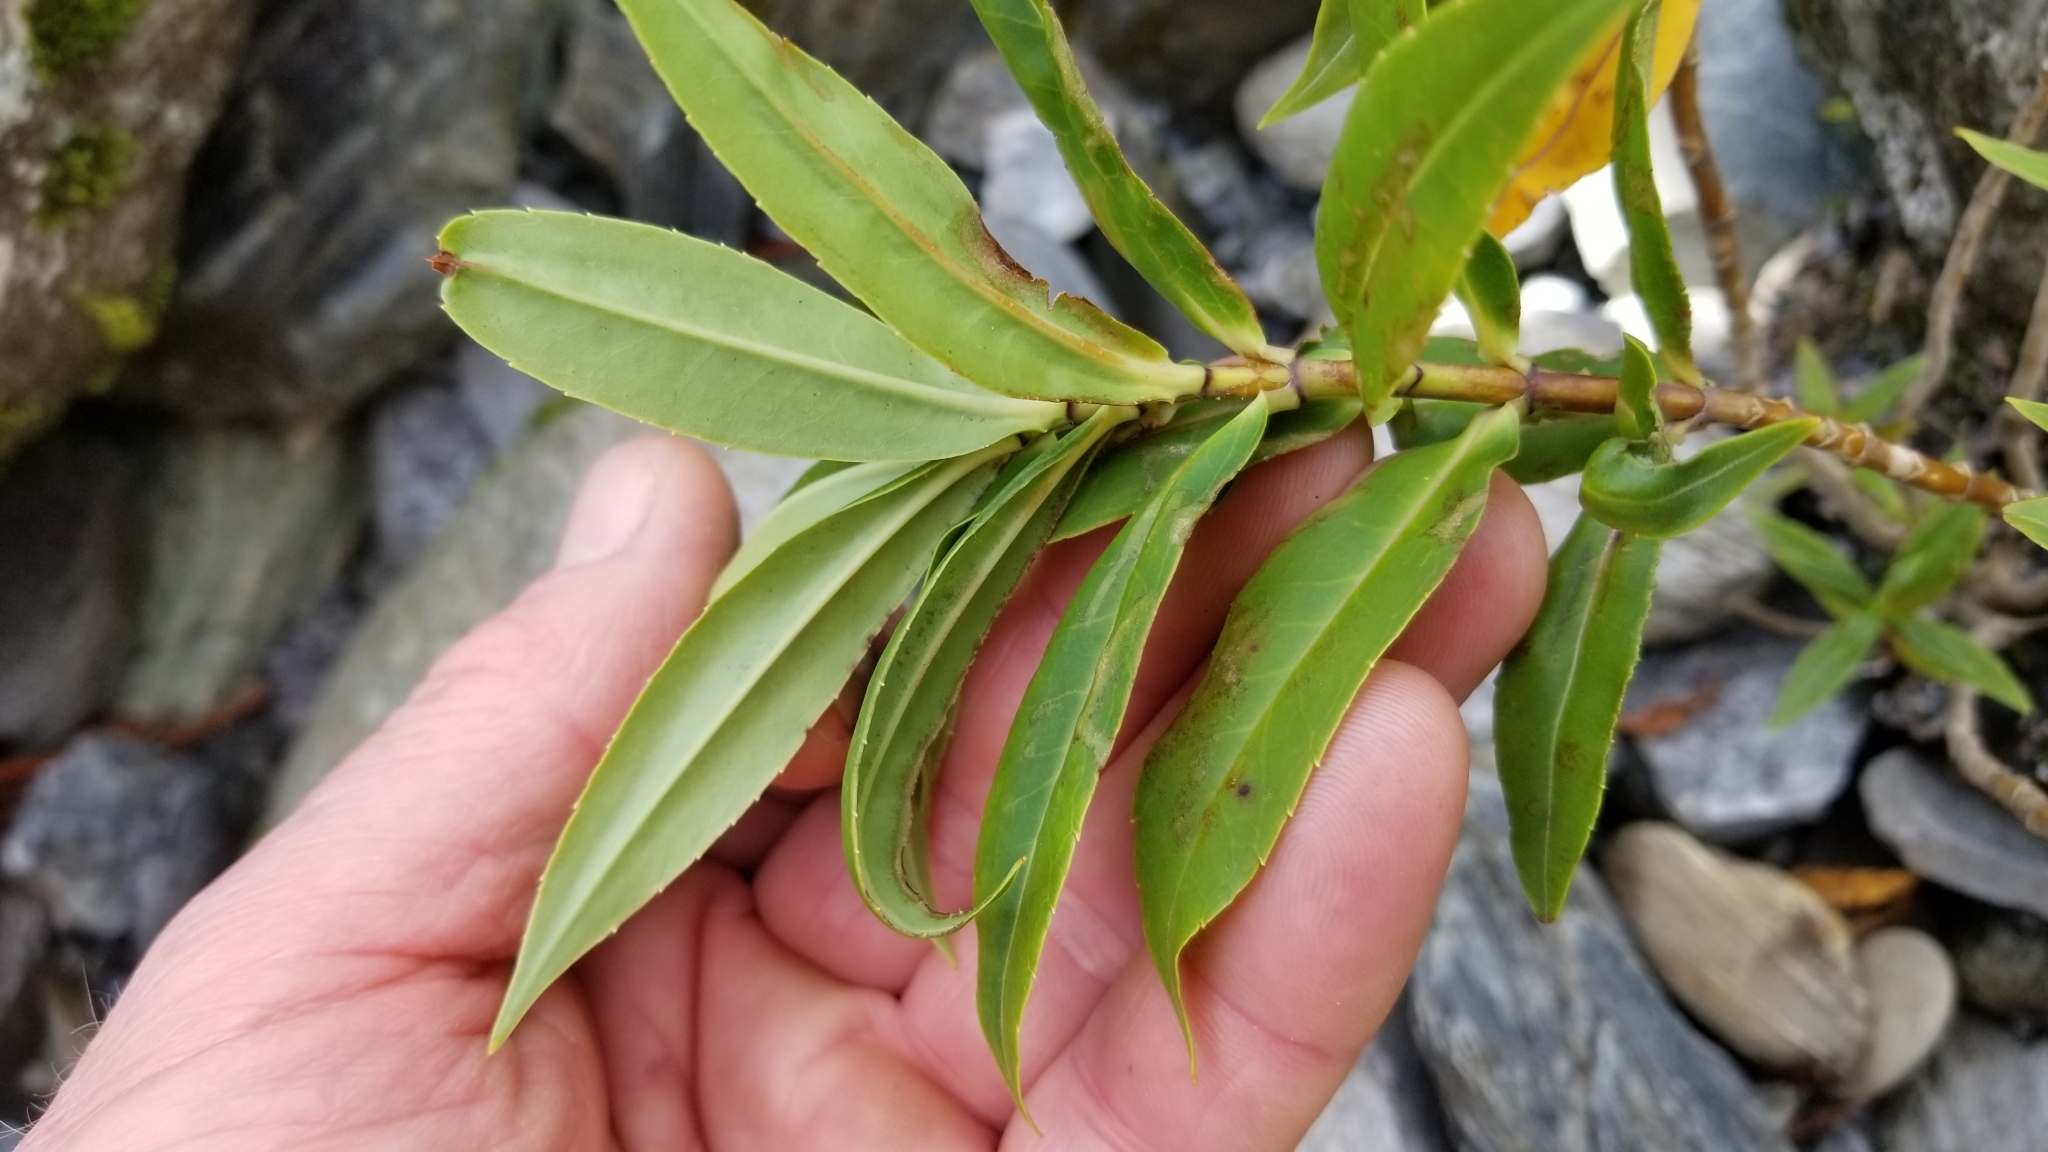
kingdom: Plantae
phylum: Tracheophyta
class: Magnoliopsida
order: Lamiales
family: Plantaginaceae
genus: Veronica
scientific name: Veronica salicifolia
